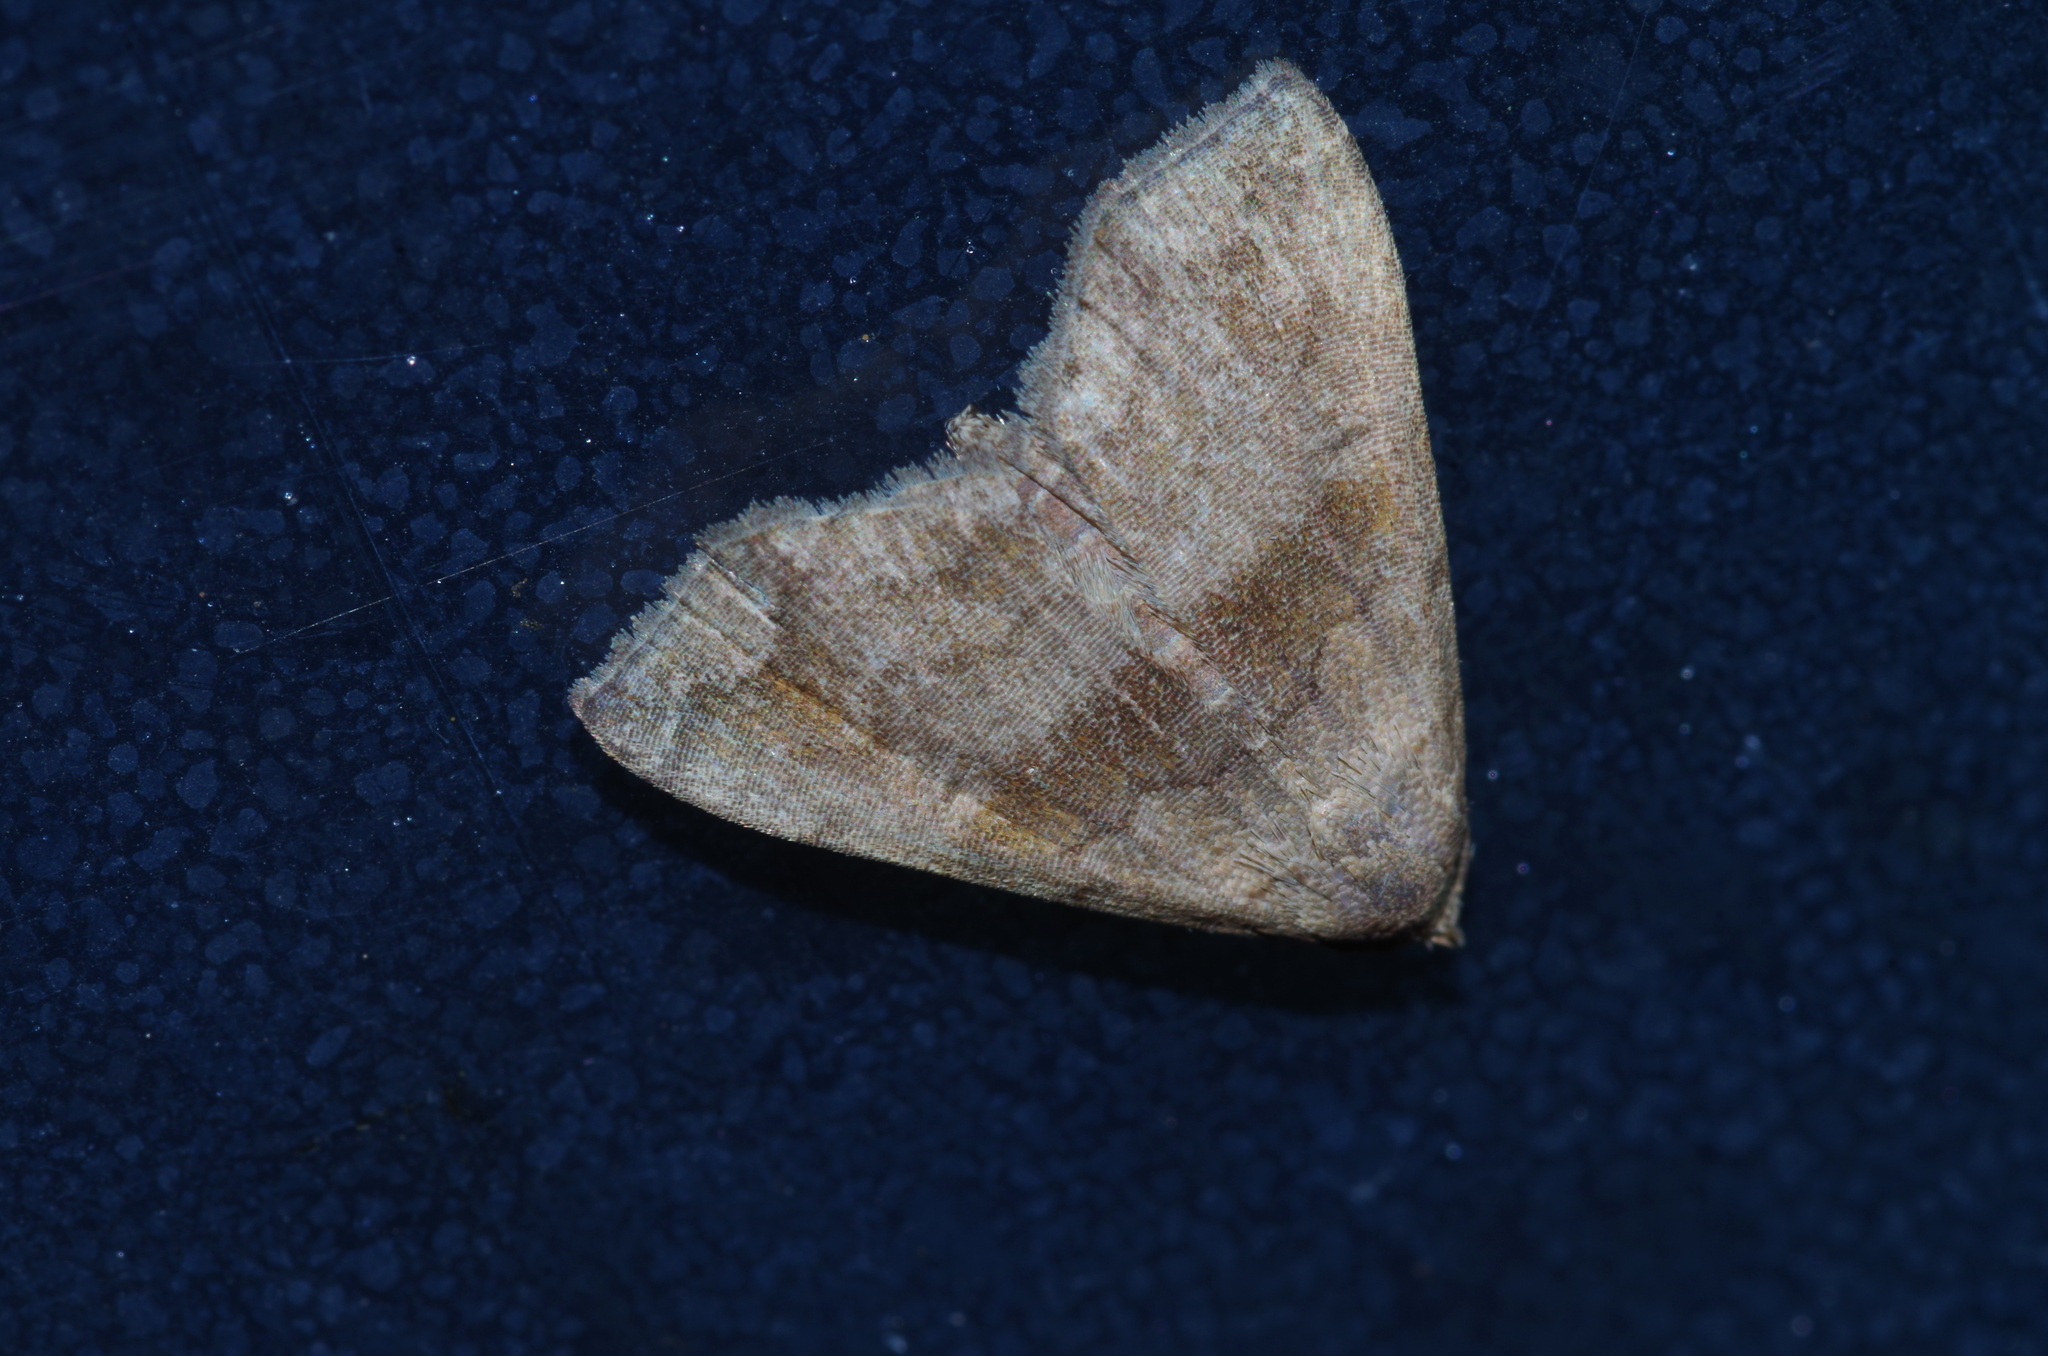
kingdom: Animalia
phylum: Arthropoda
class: Insecta
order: Lepidoptera
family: Erebidae
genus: Polypogon
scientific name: Polypogon Hipoepa fractalis
